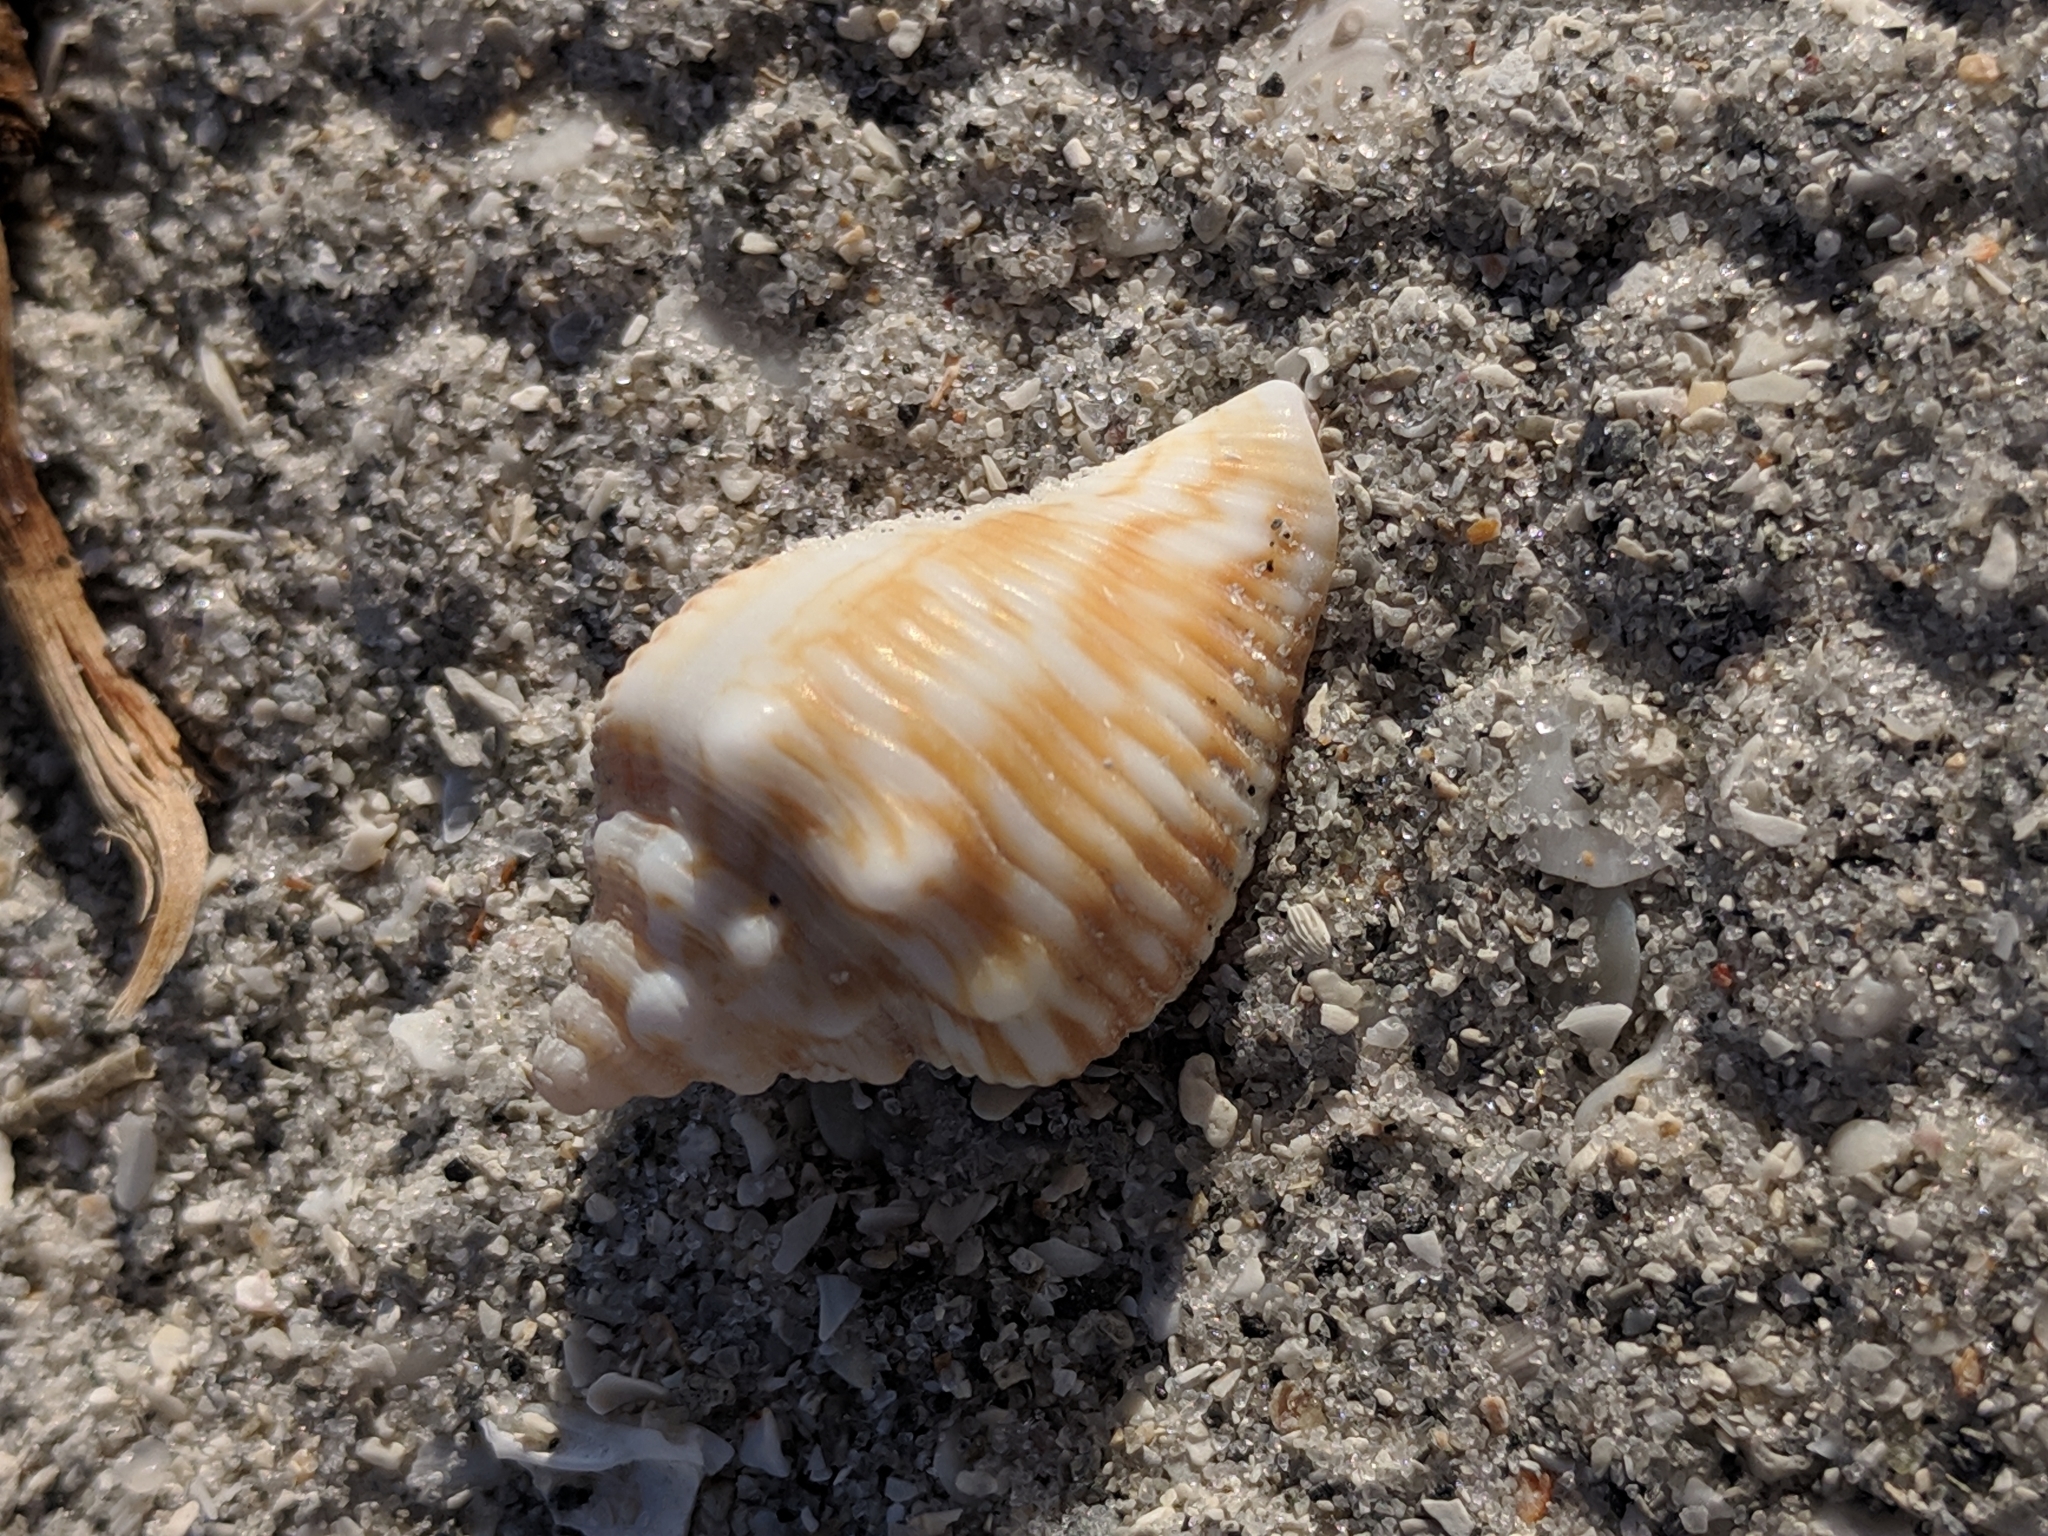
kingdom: Animalia
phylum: Mollusca
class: Gastropoda
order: Littorinimorpha
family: Strombidae
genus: Strombus
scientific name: Strombus alatus
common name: Florida fighting conch
